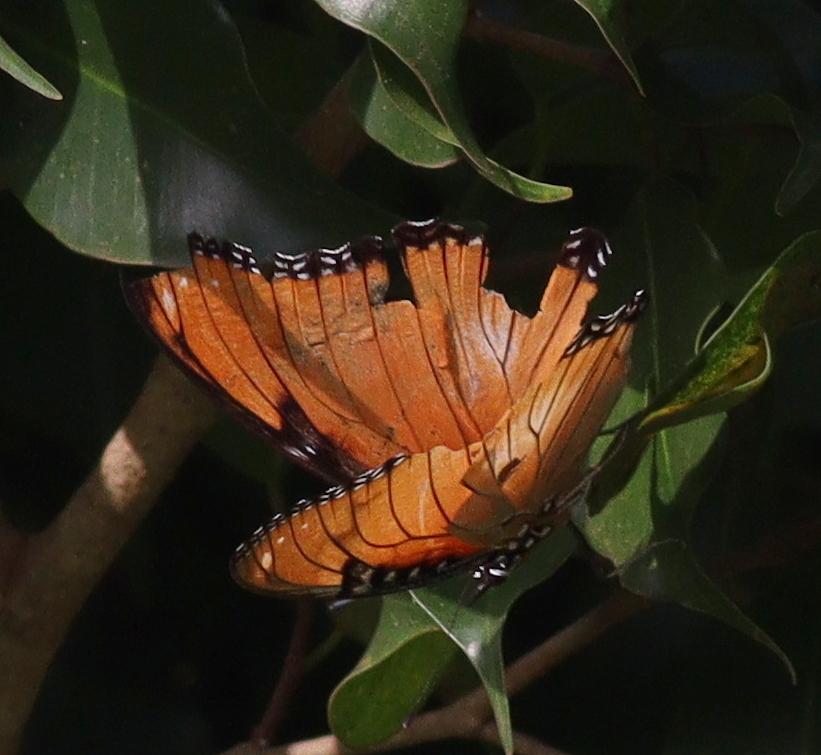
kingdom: Animalia
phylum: Arthropoda
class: Insecta
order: Lepidoptera
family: Nymphalidae
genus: Hypolimnas
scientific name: Hypolimnas misippus
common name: False plain tiger
